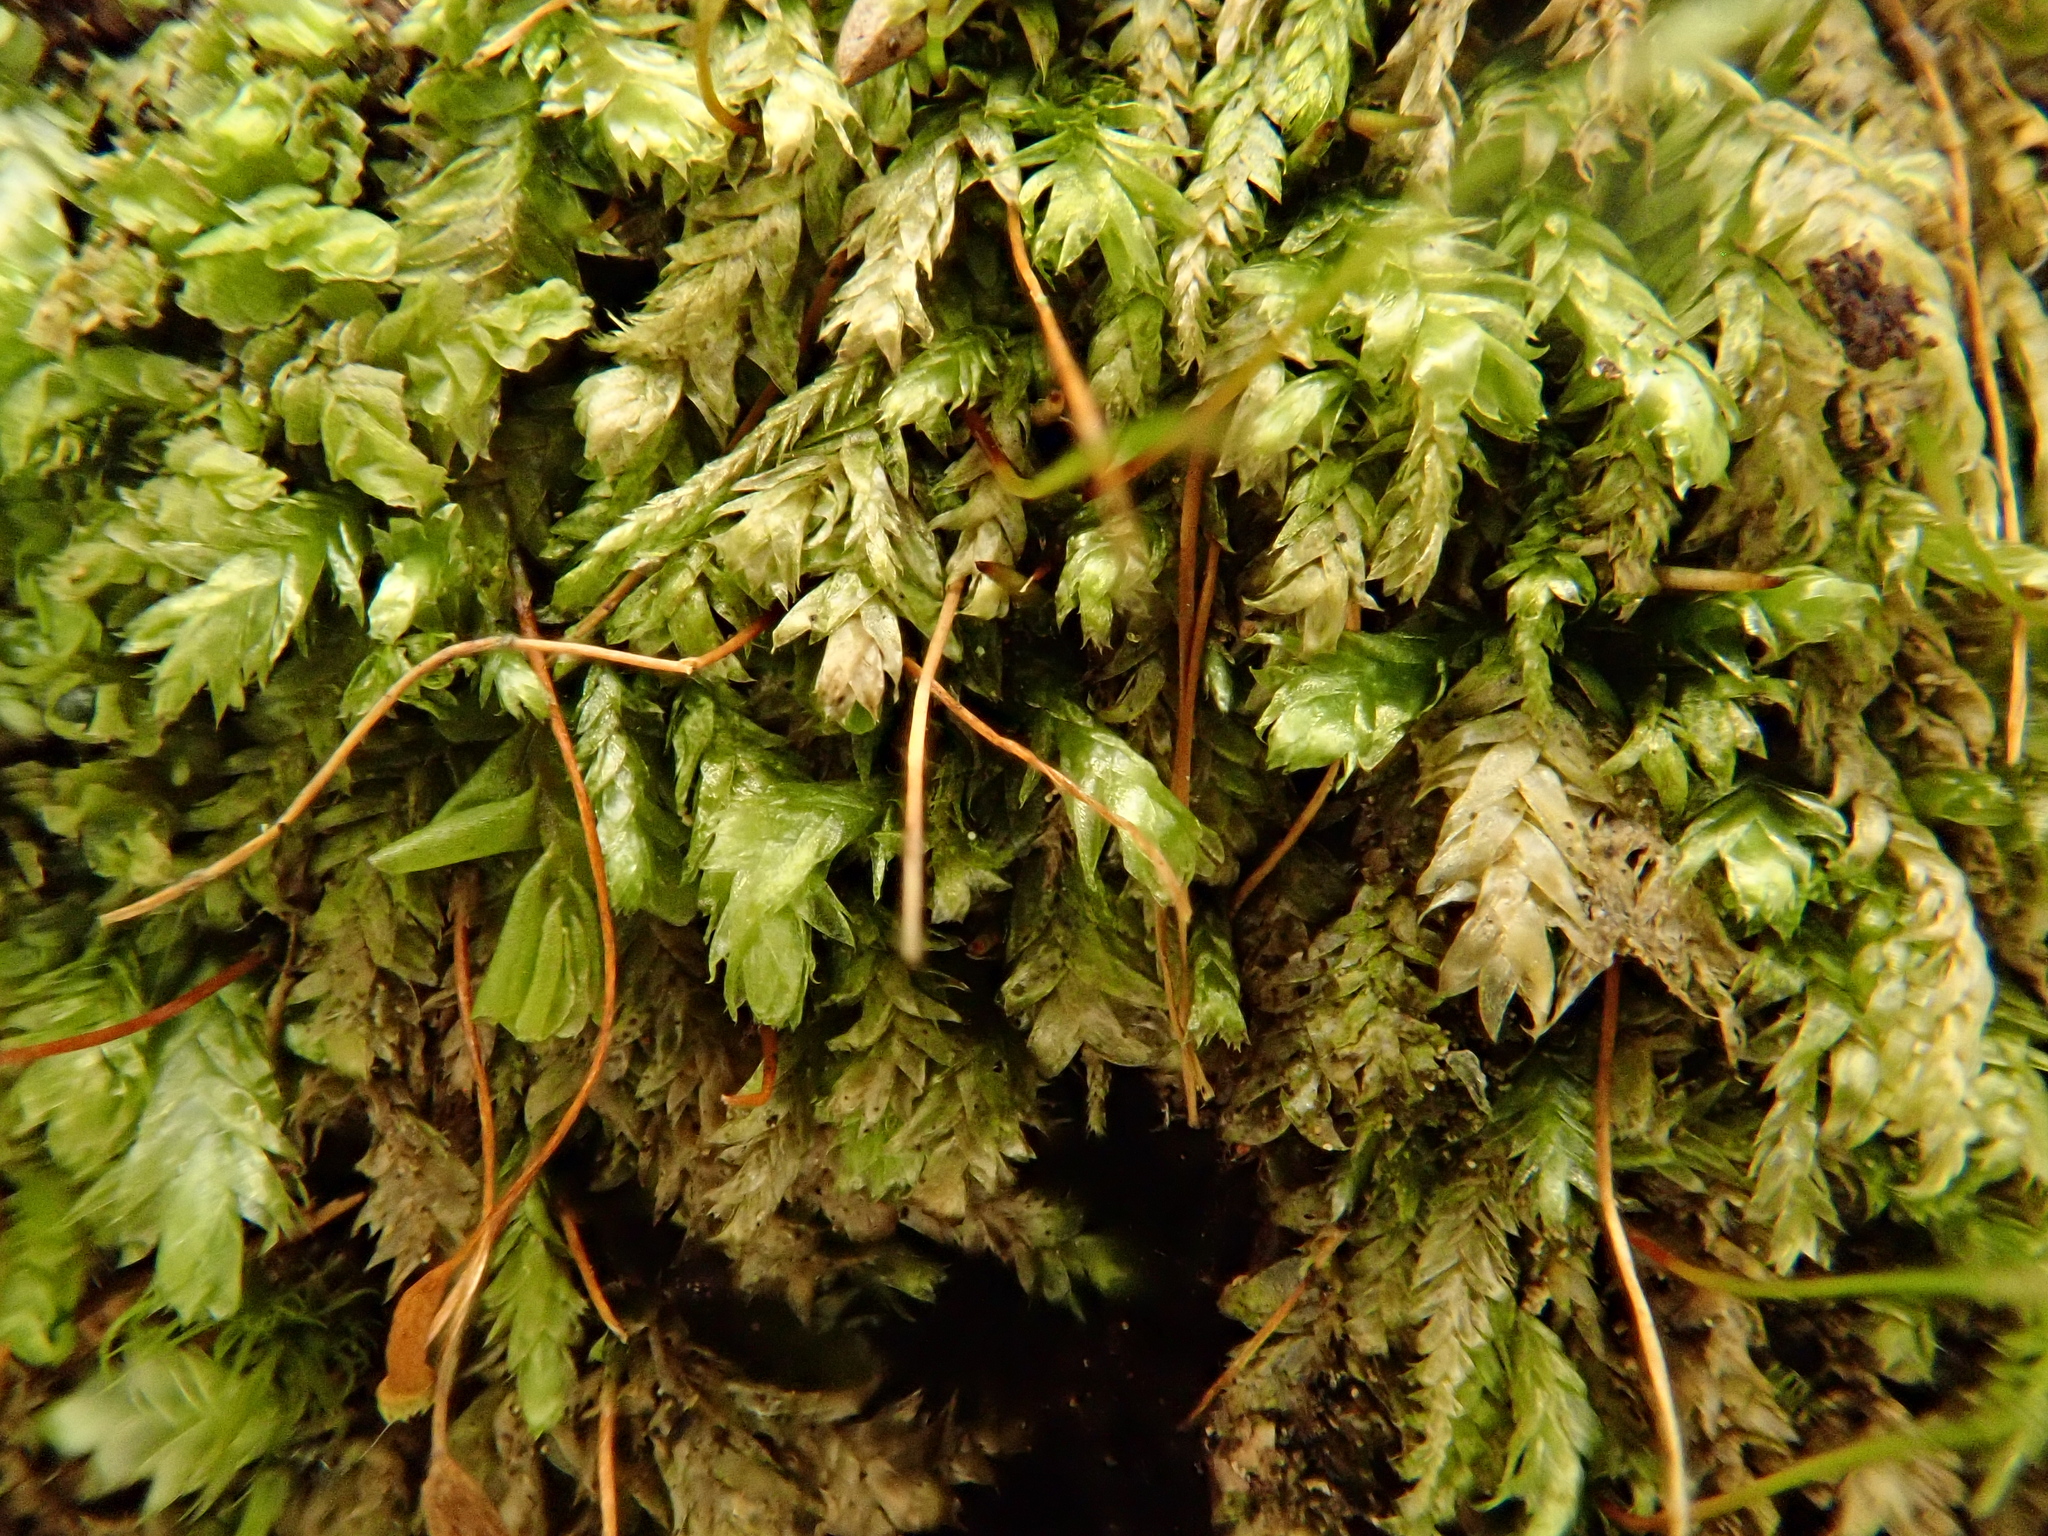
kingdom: Plantae
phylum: Bryophyta
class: Bryopsida
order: Hypnales
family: Plagiotheciaceae
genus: Plagiothecium
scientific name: Plagiothecium curvifolium
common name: Curved silk-moss
